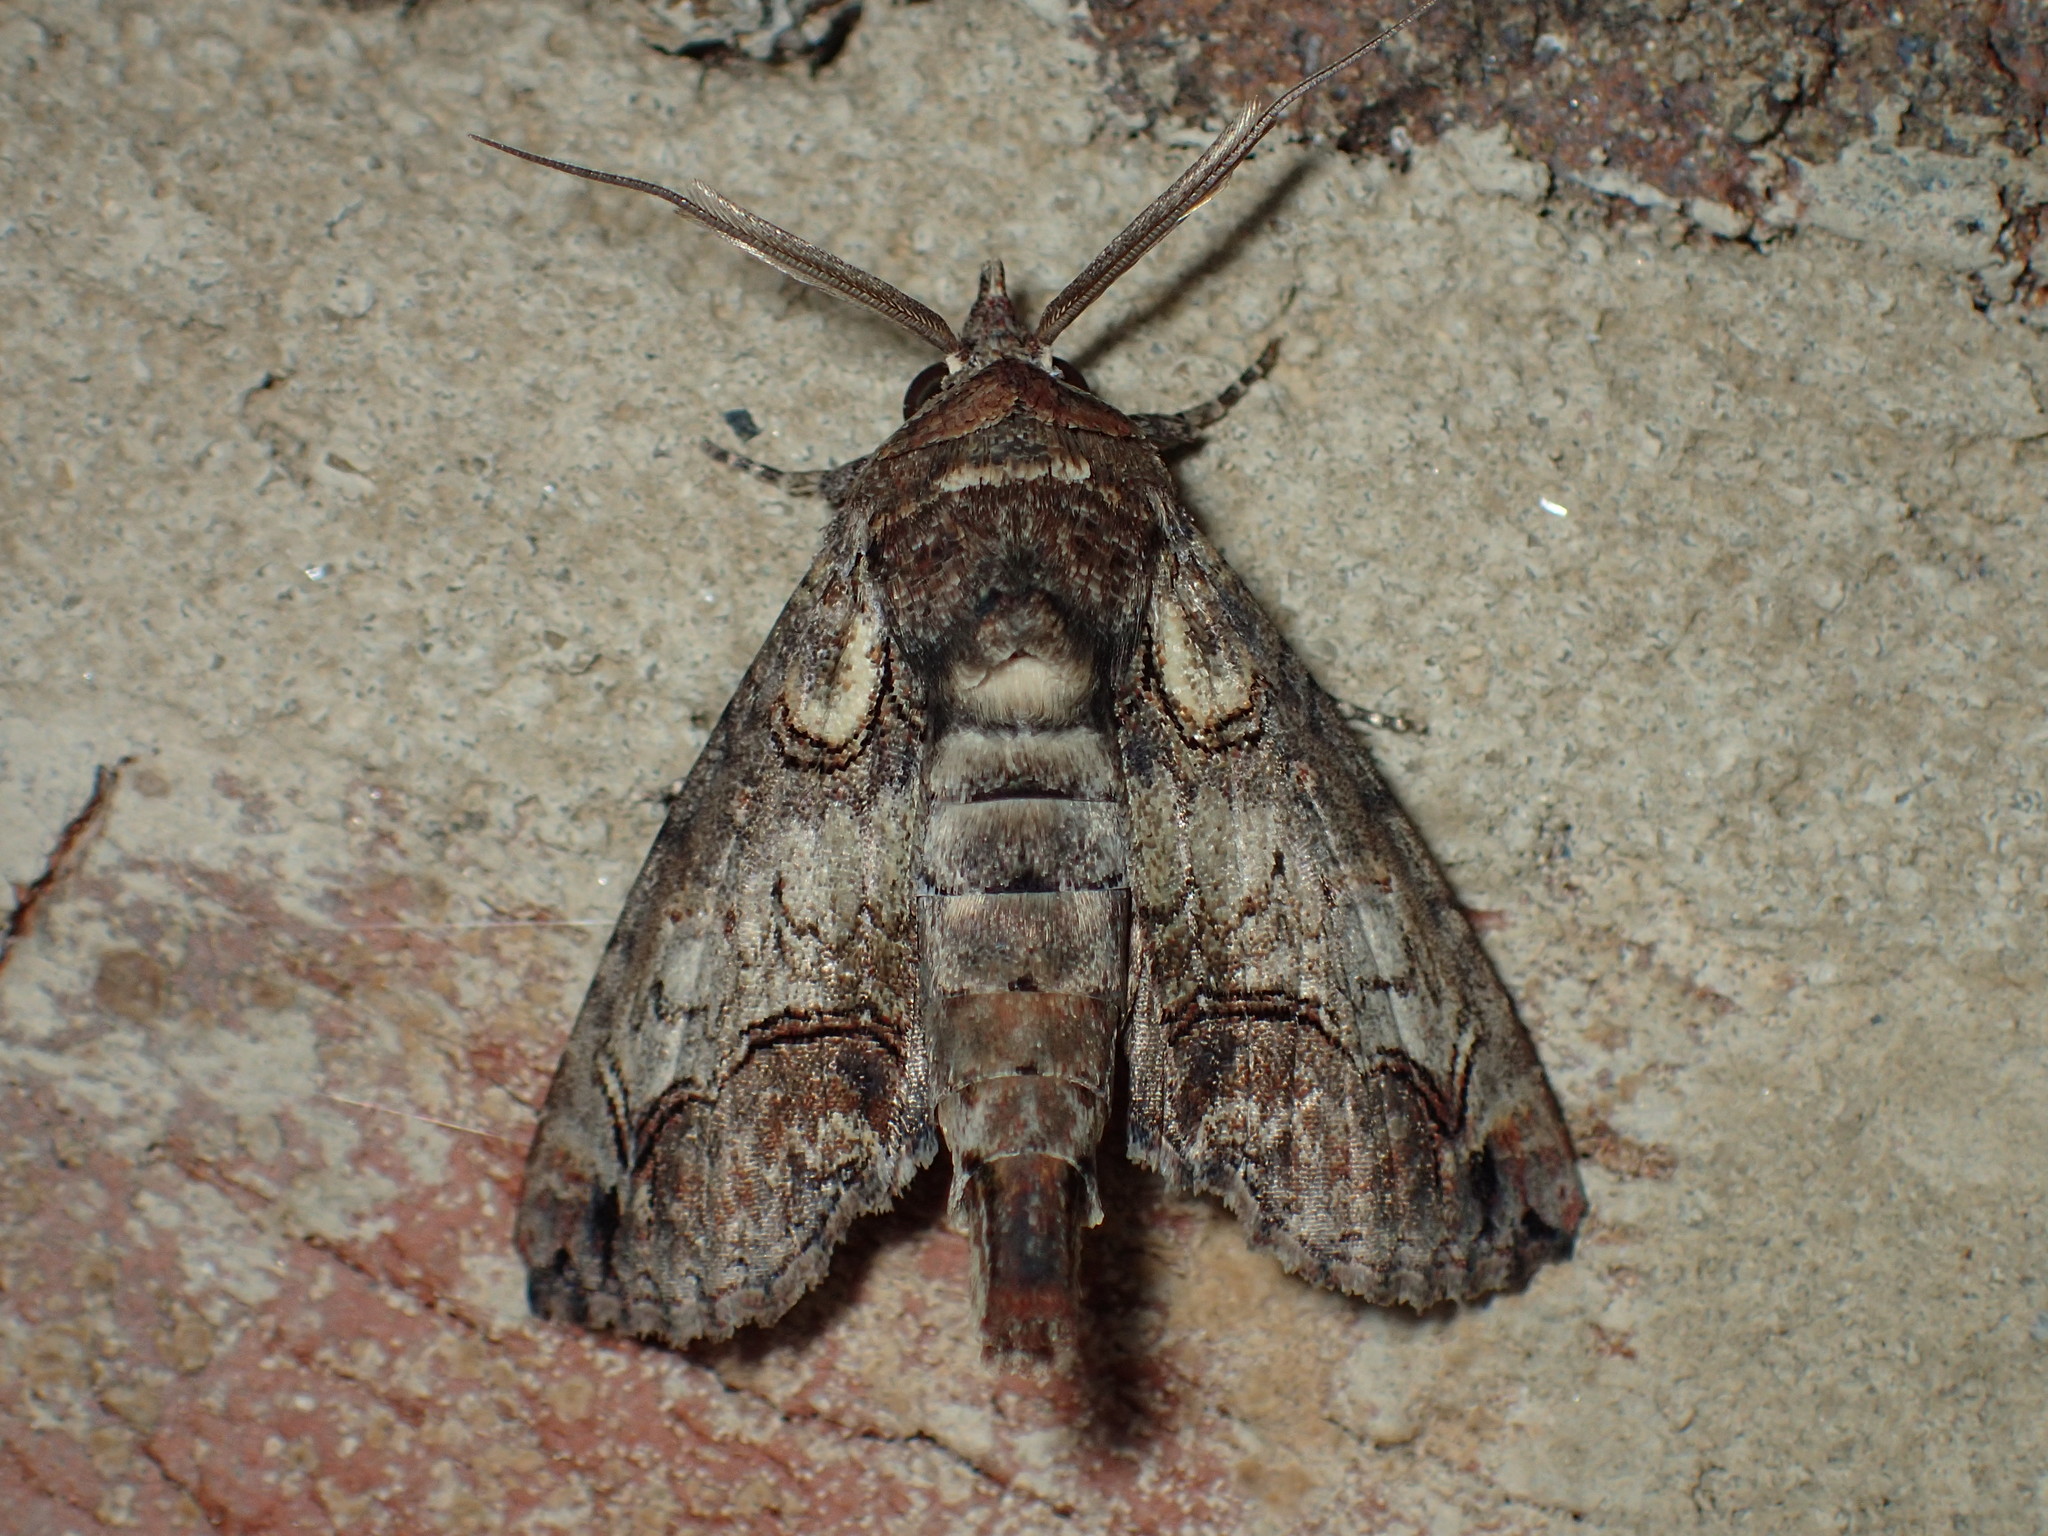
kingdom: Animalia
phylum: Arthropoda
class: Insecta
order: Lepidoptera
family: Euteliidae
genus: Paectes
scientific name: Paectes abrostoloides
